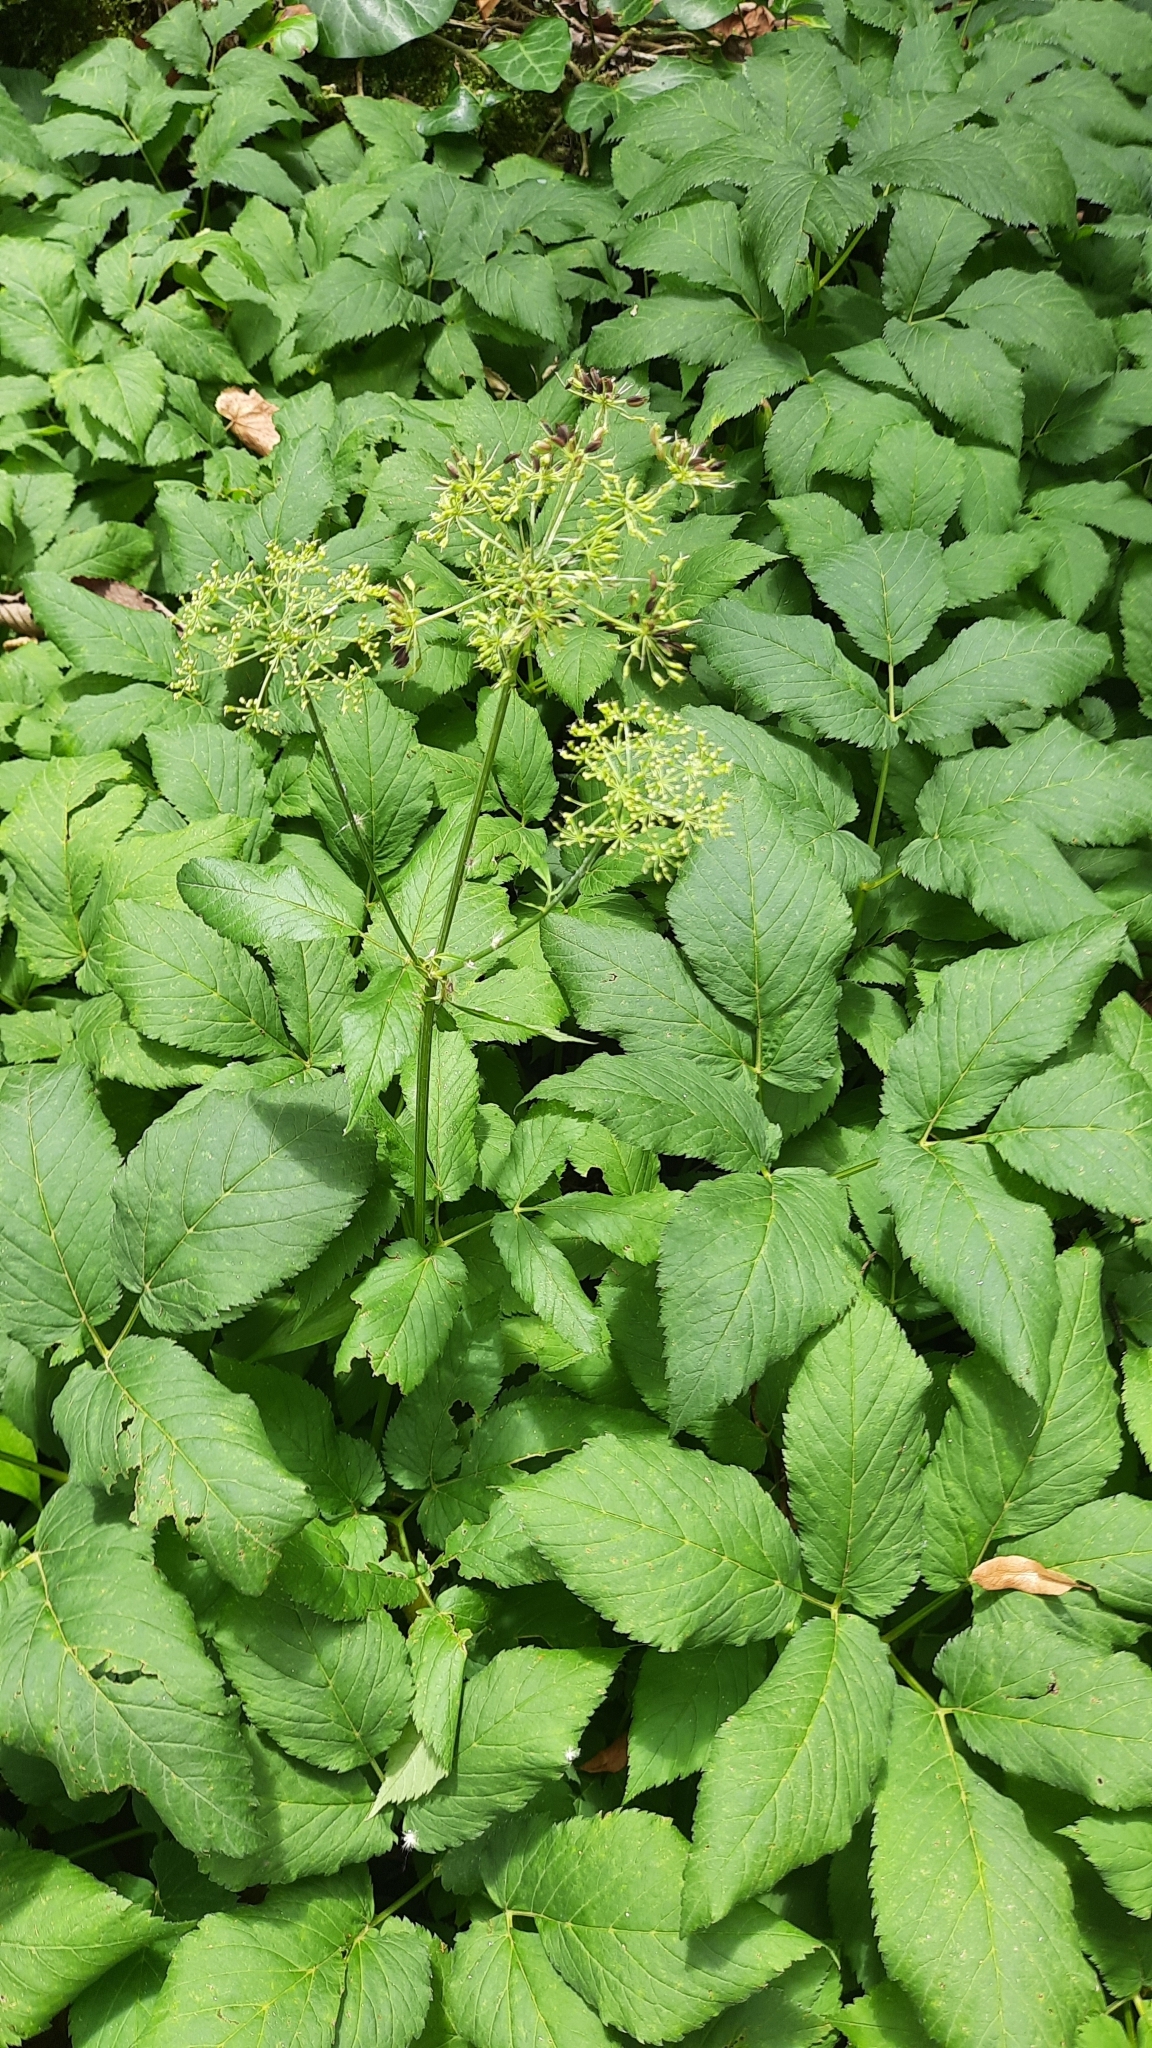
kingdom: Plantae
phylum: Tracheophyta
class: Magnoliopsida
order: Apiales
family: Apiaceae
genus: Aegopodium
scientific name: Aegopodium podagraria
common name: Ground-elder
